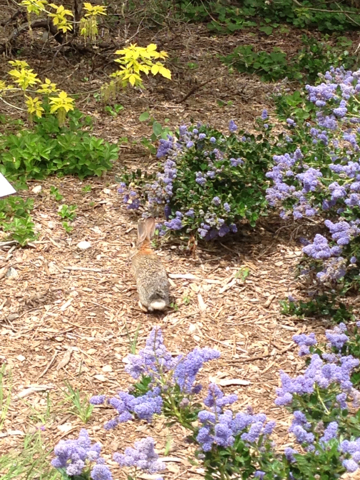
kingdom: Animalia
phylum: Chordata
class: Mammalia
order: Lagomorpha
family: Leporidae
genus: Sylvilagus
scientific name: Sylvilagus audubonii
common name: Desert cottontail
